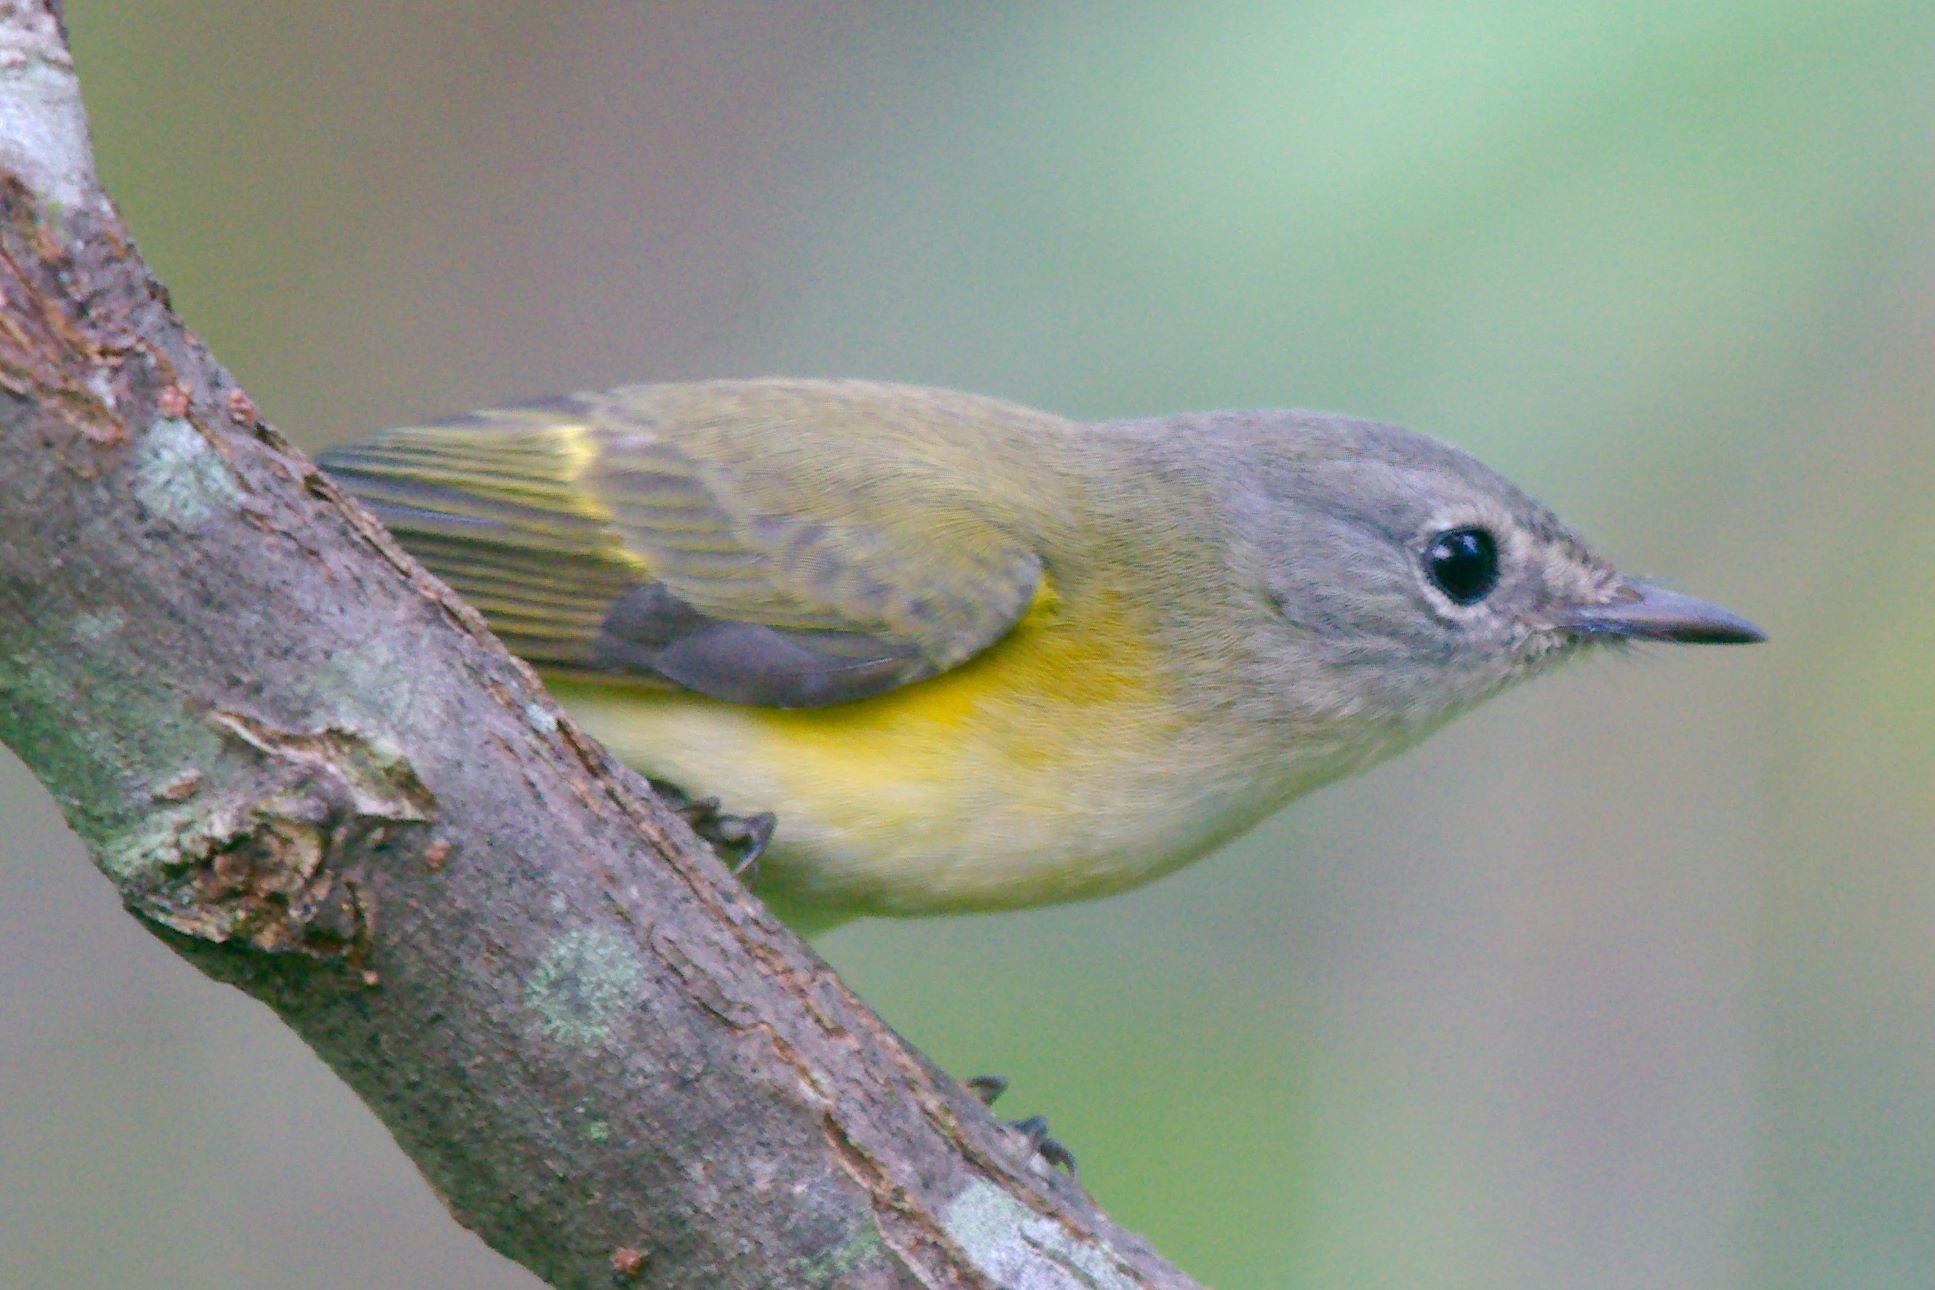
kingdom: Animalia
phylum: Chordata
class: Aves
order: Passeriformes
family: Parulidae
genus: Setophaga
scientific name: Setophaga ruticilla
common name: American redstart
